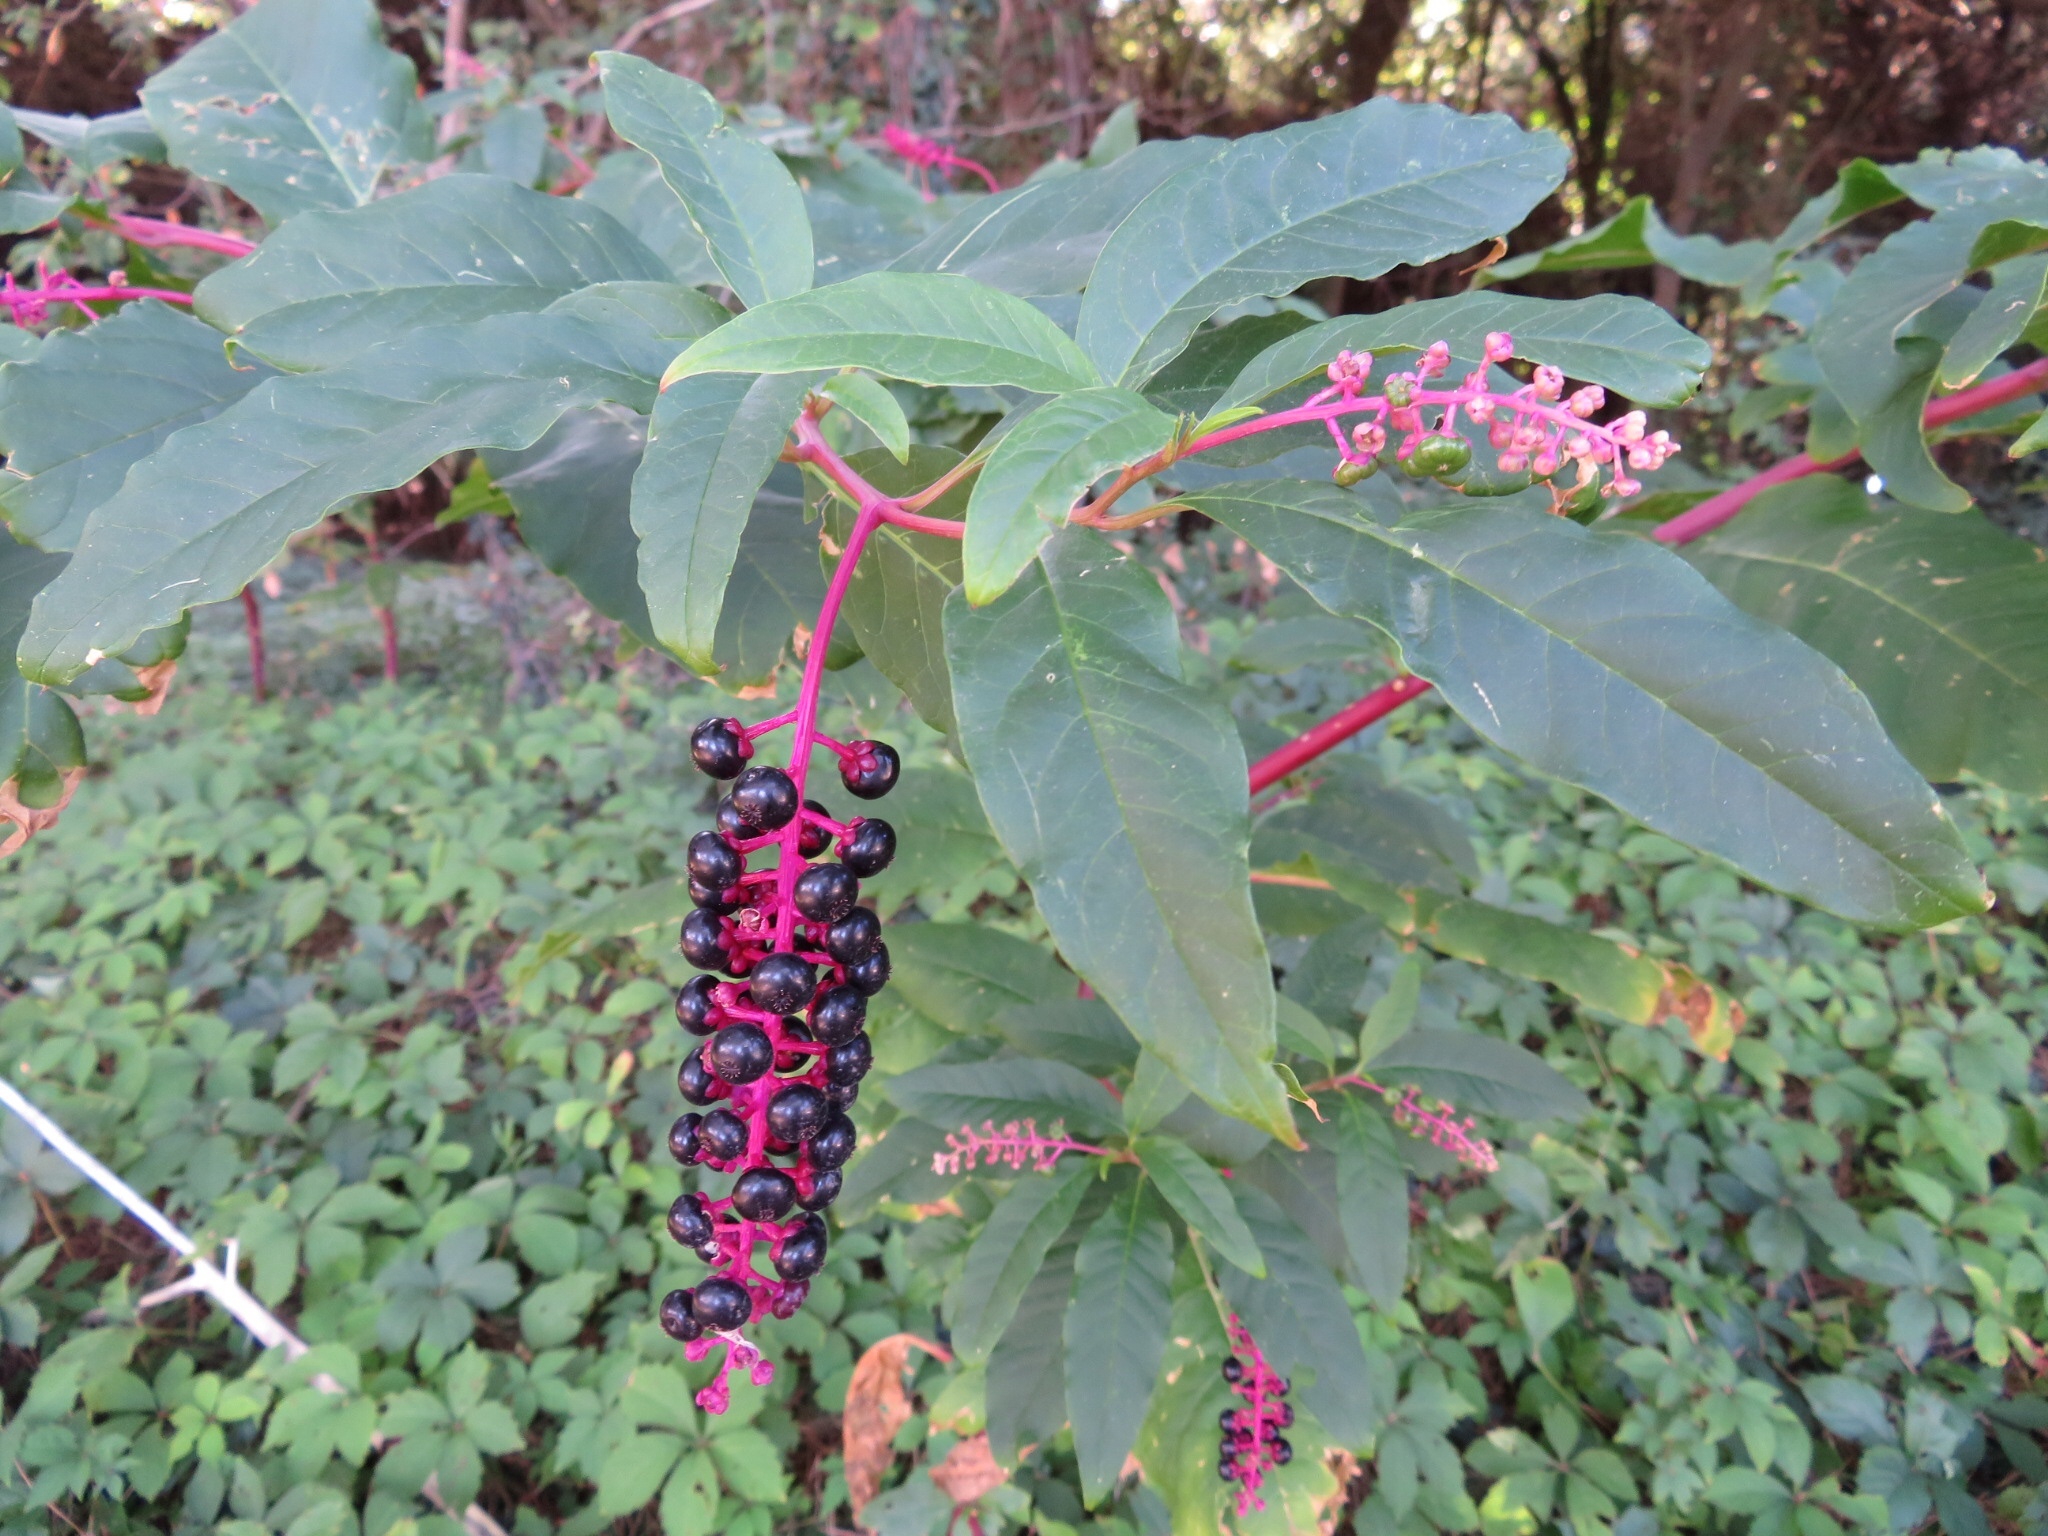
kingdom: Plantae
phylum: Tracheophyta
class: Magnoliopsida
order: Caryophyllales
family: Phytolaccaceae
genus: Phytolacca
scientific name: Phytolacca americana
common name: American pokeweed
